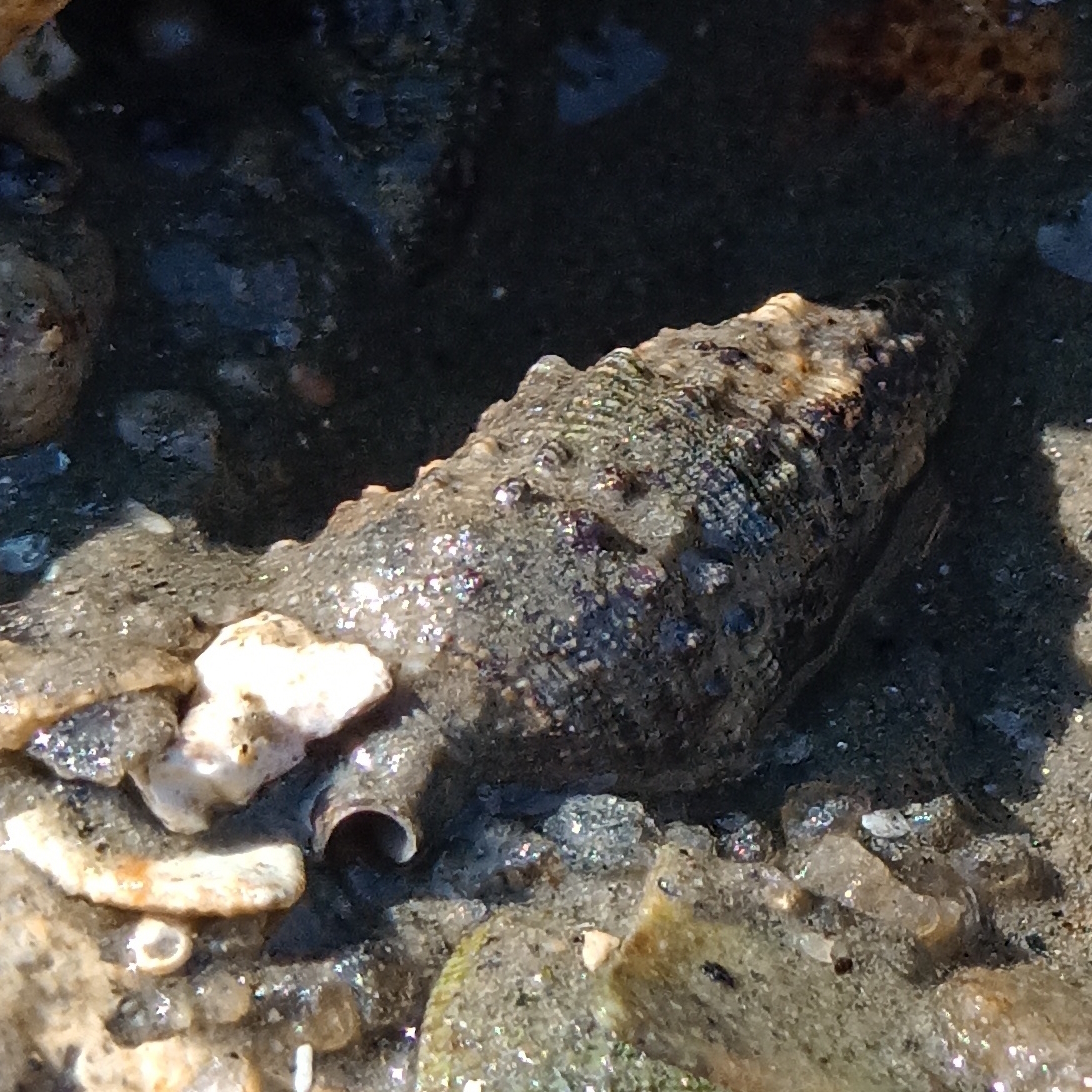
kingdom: Animalia
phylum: Mollusca
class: Gastropoda
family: Cerithiidae
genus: Cerithium
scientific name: Cerithium atratum
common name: Dark cerith
